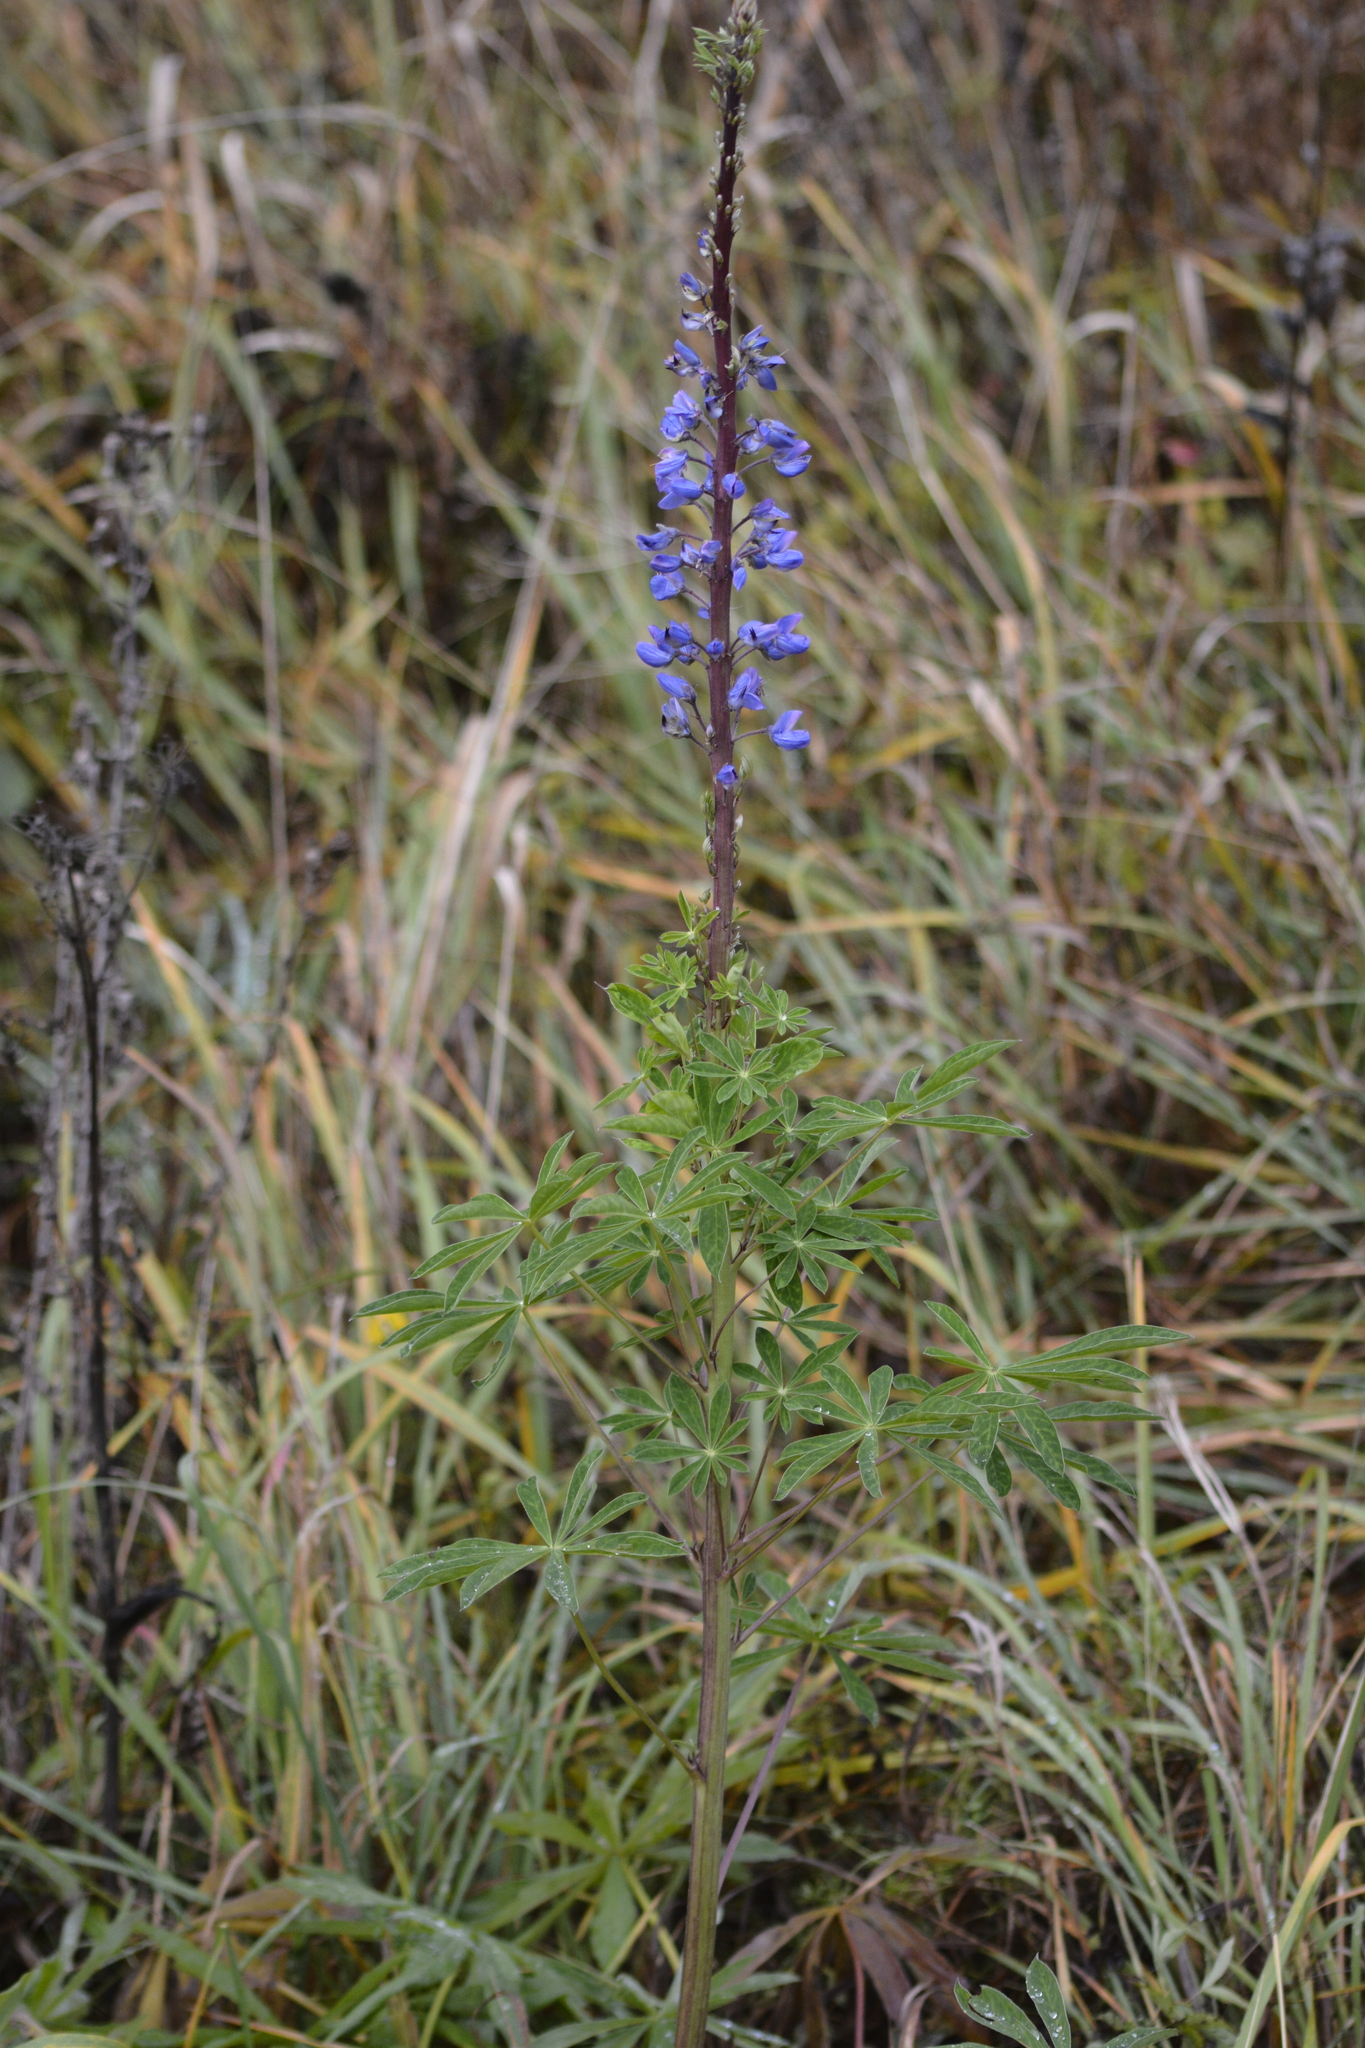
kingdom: Plantae
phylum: Tracheophyta
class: Magnoliopsida
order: Fabales
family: Fabaceae
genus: Lupinus
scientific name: Lupinus polyphyllus
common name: Garden lupin
